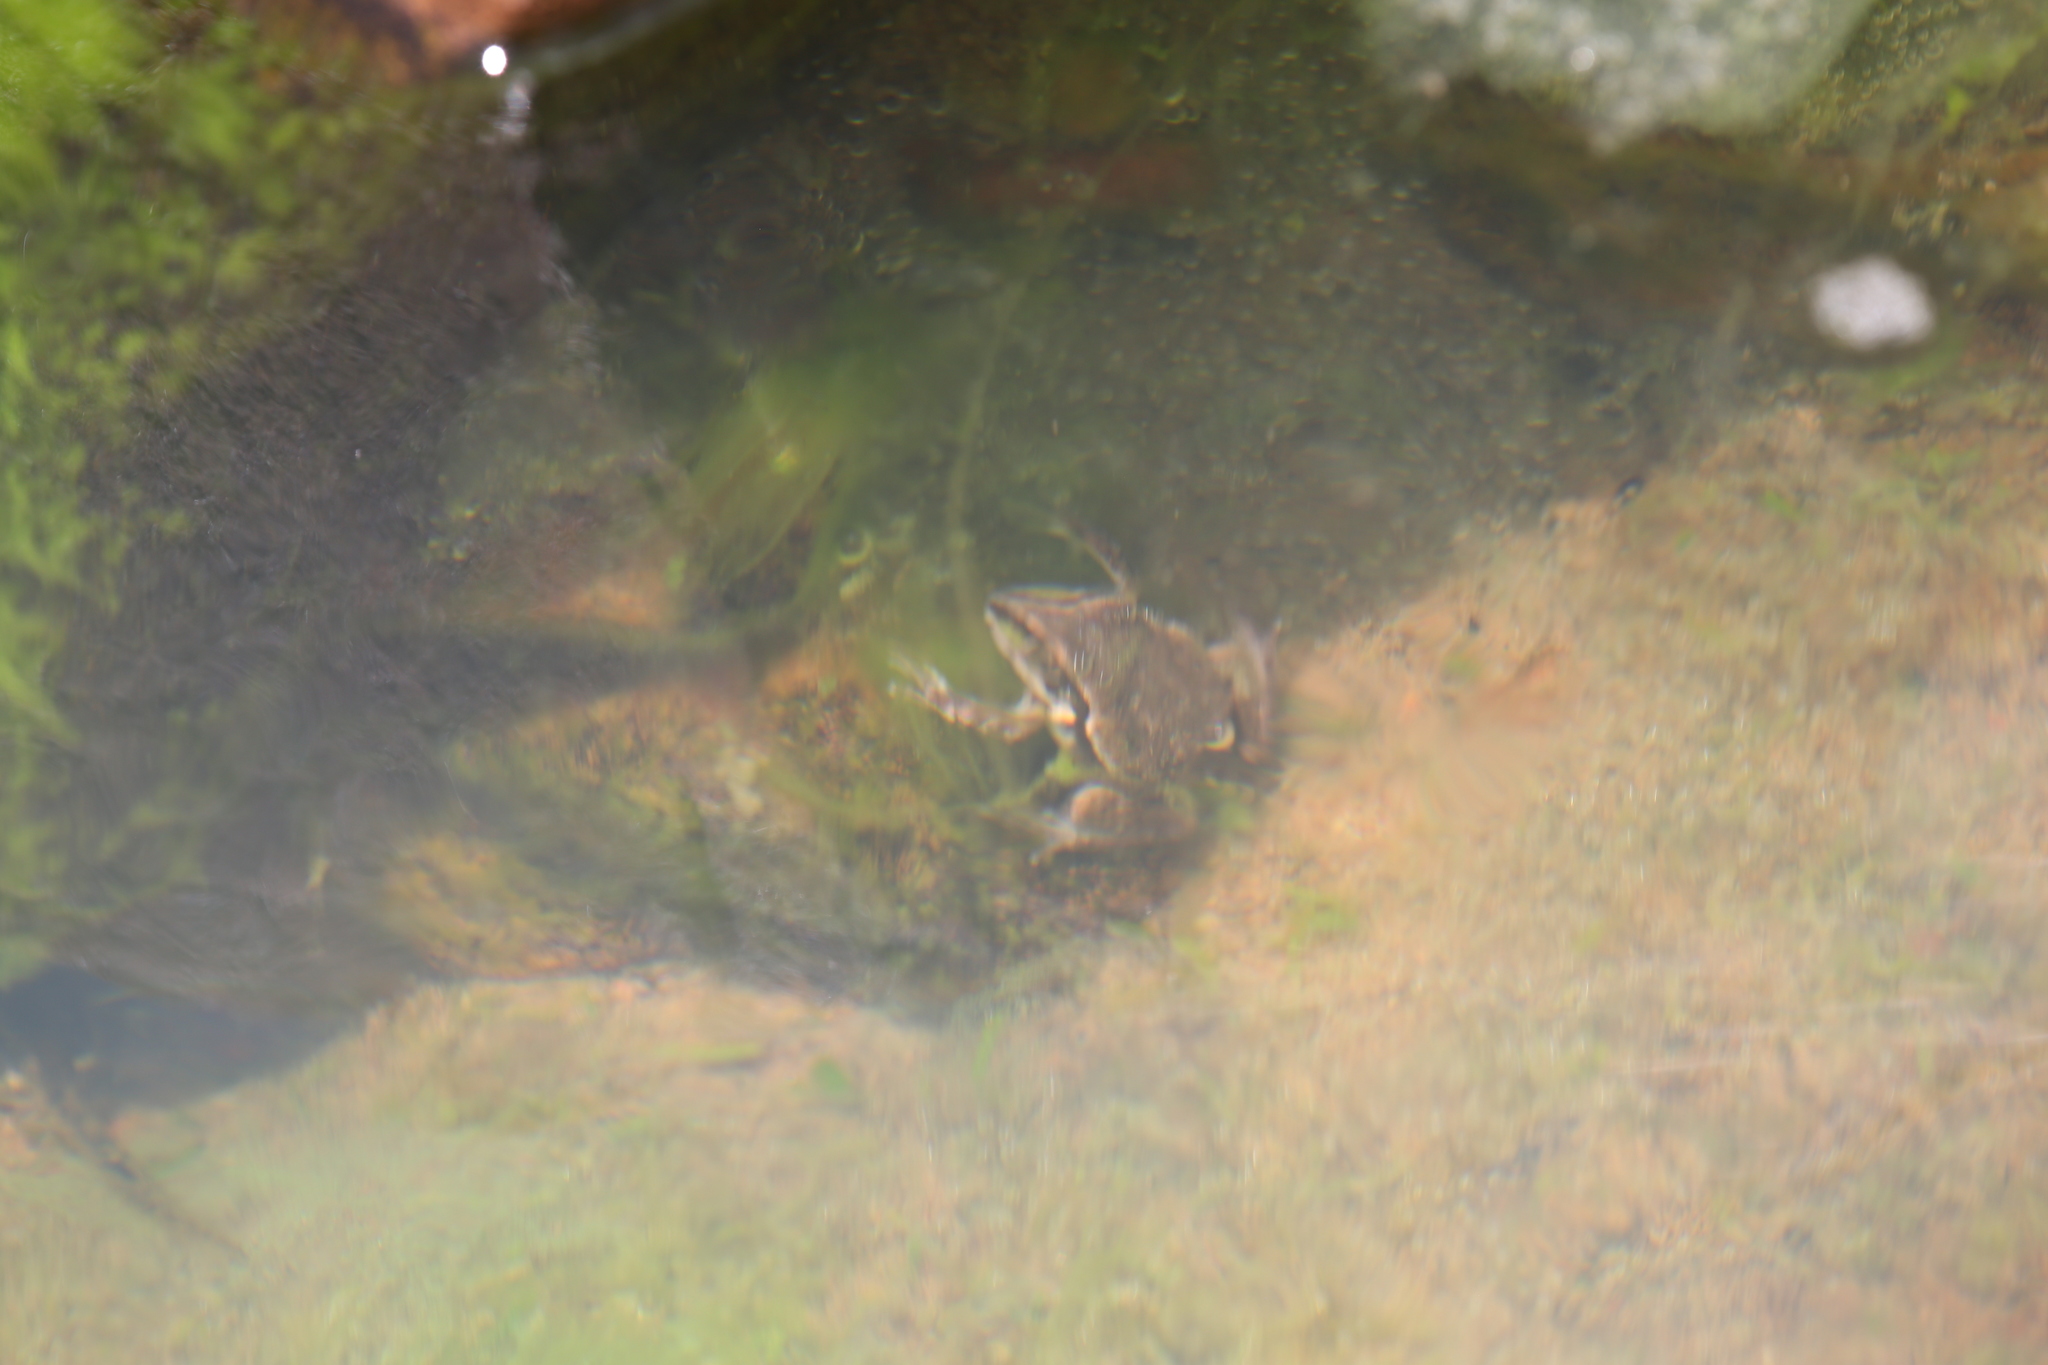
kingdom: Animalia
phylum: Chordata
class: Amphibia
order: Anura
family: Pelodryadidae
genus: Ranoidea
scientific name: Ranoidea australis
